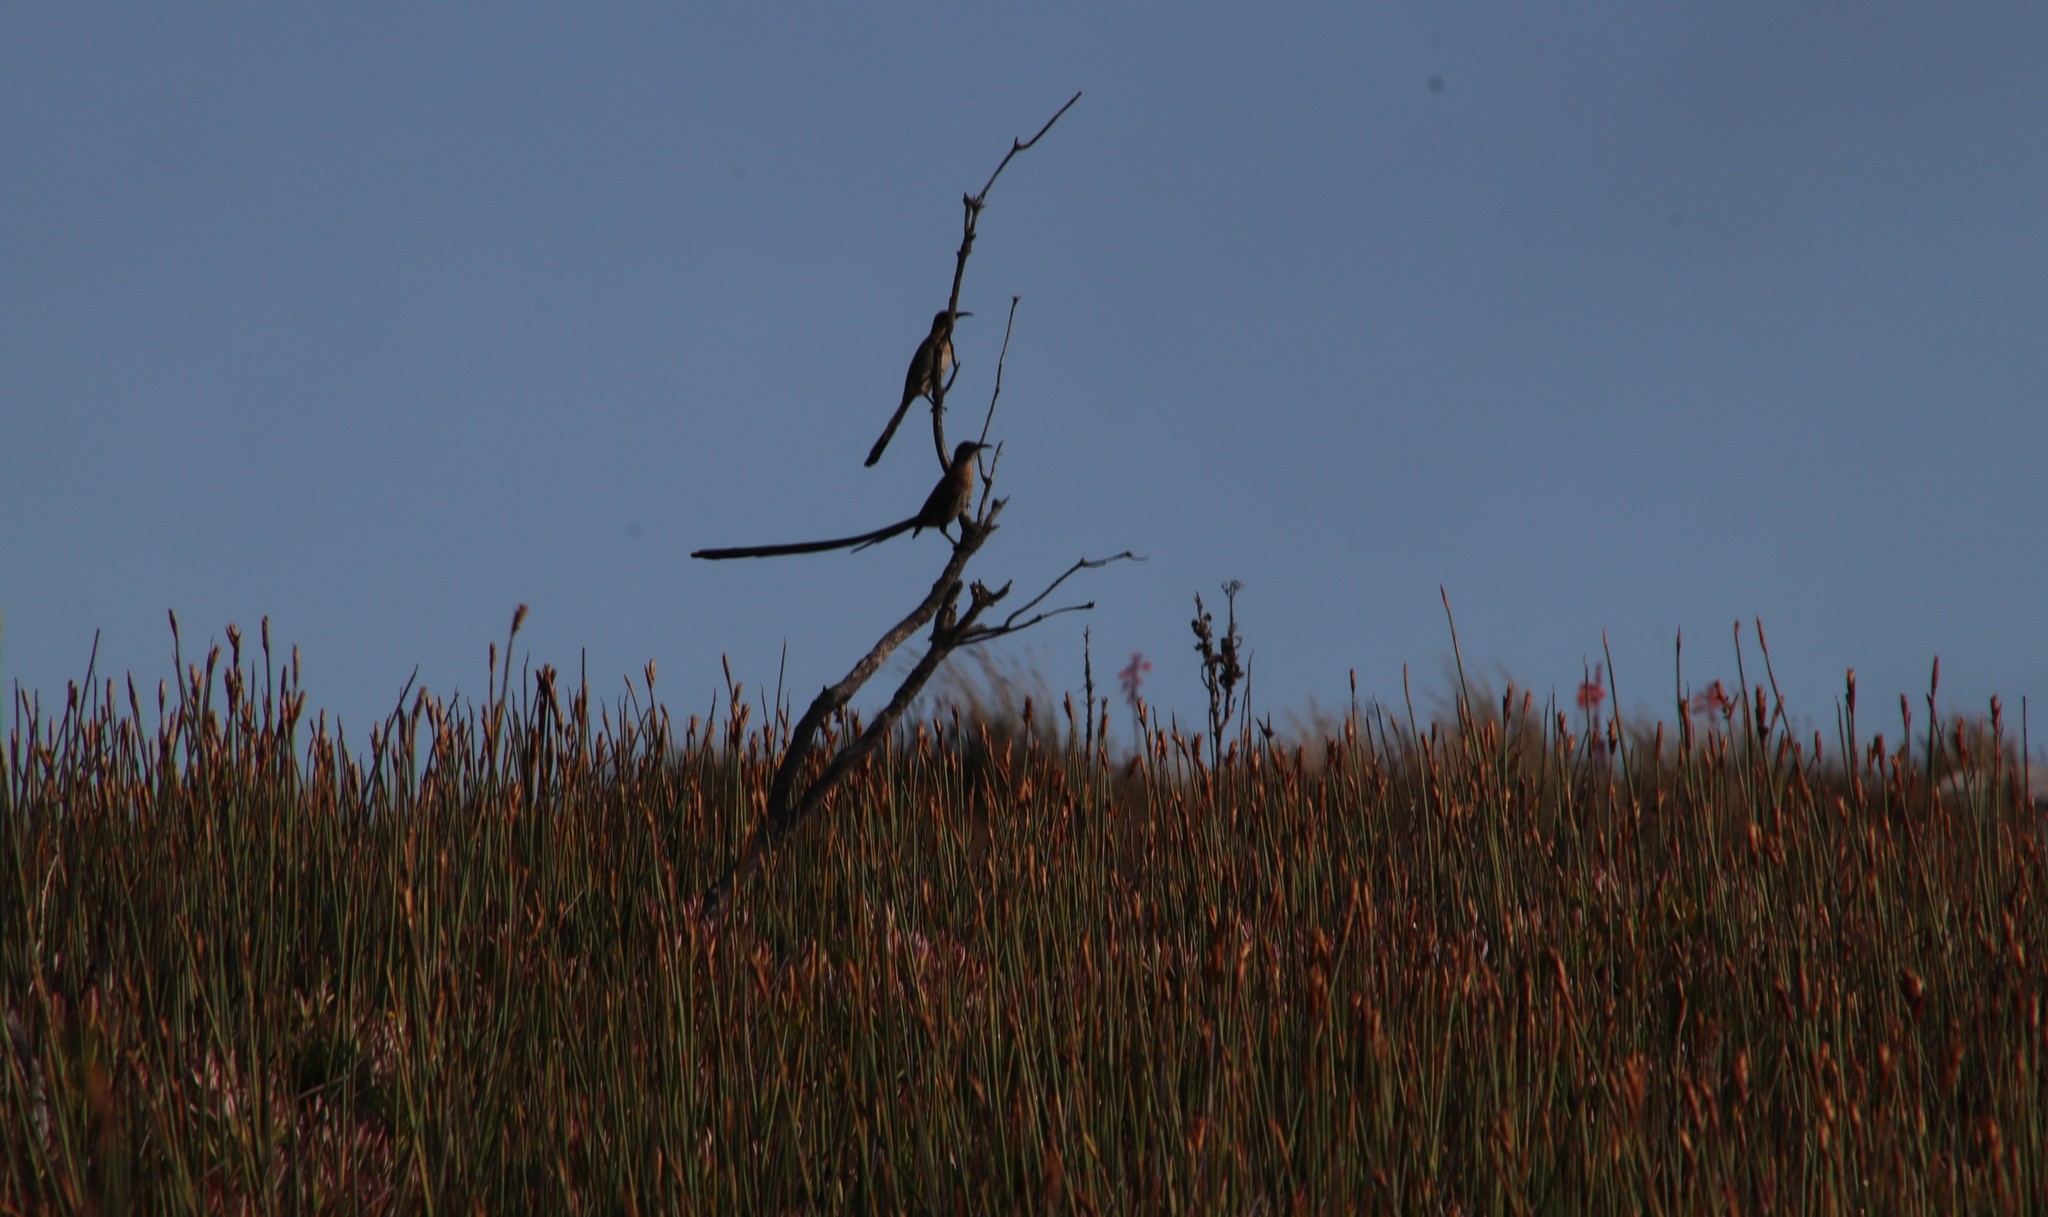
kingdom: Animalia
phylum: Chordata
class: Aves
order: Passeriformes
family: Promeropidae
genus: Promerops
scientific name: Promerops cafer
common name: Cape sugarbird
